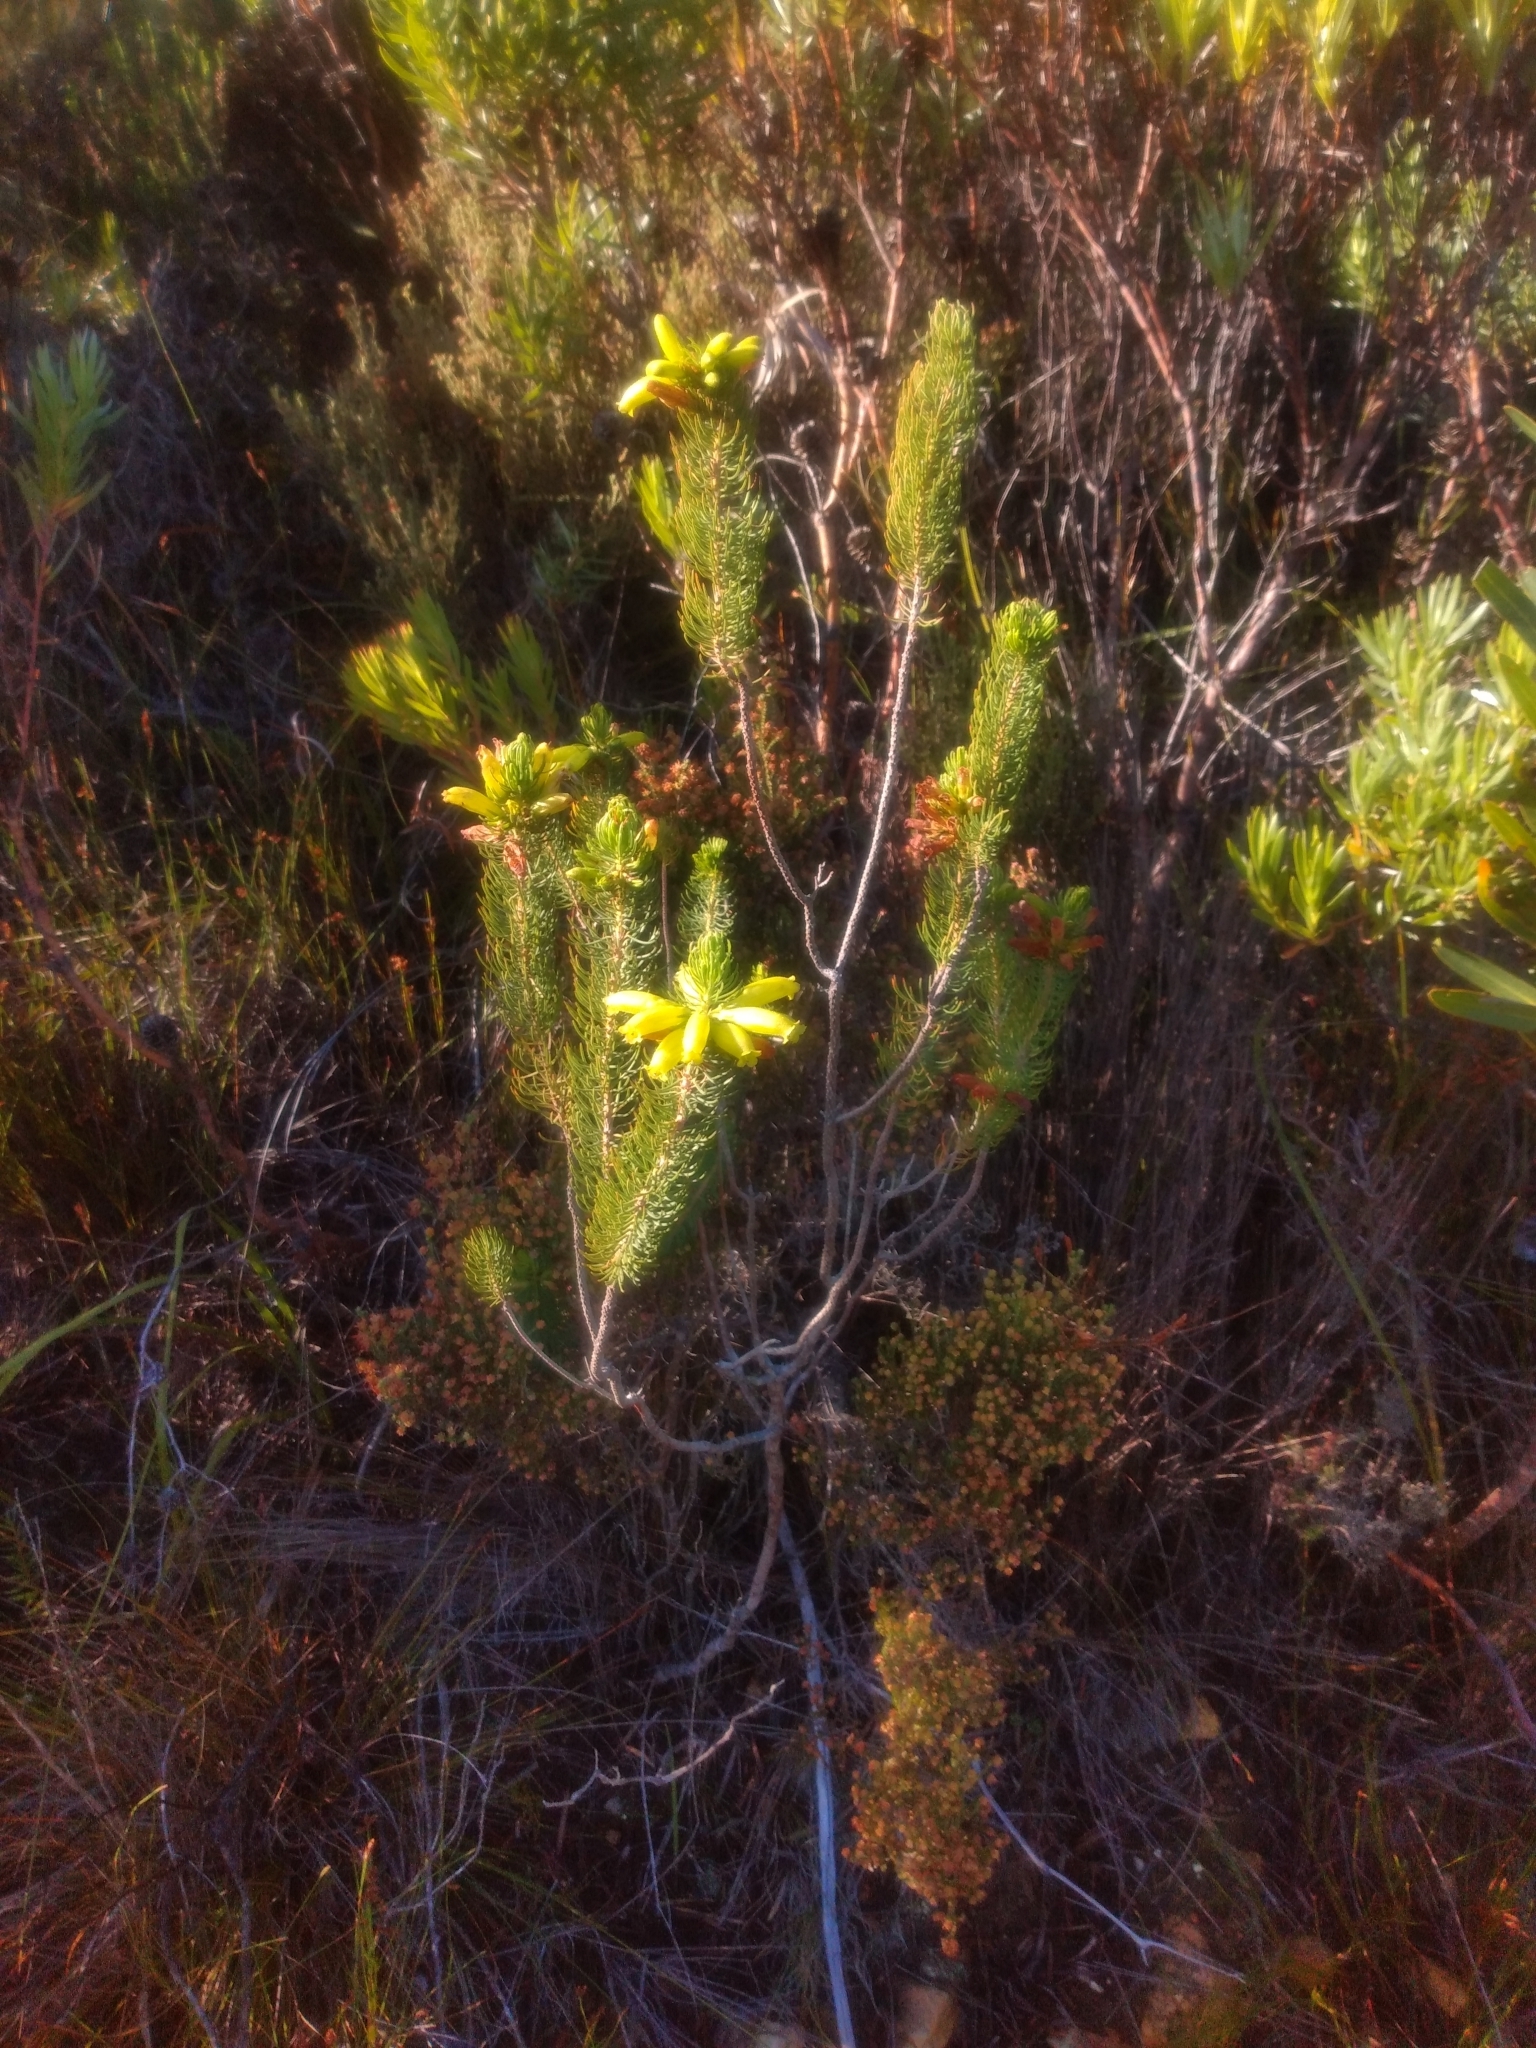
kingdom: Plantae
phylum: Tracheophyta
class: Magnoliopsida
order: Ericales
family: Ericaceae
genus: Erica
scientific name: Erica viscaria
